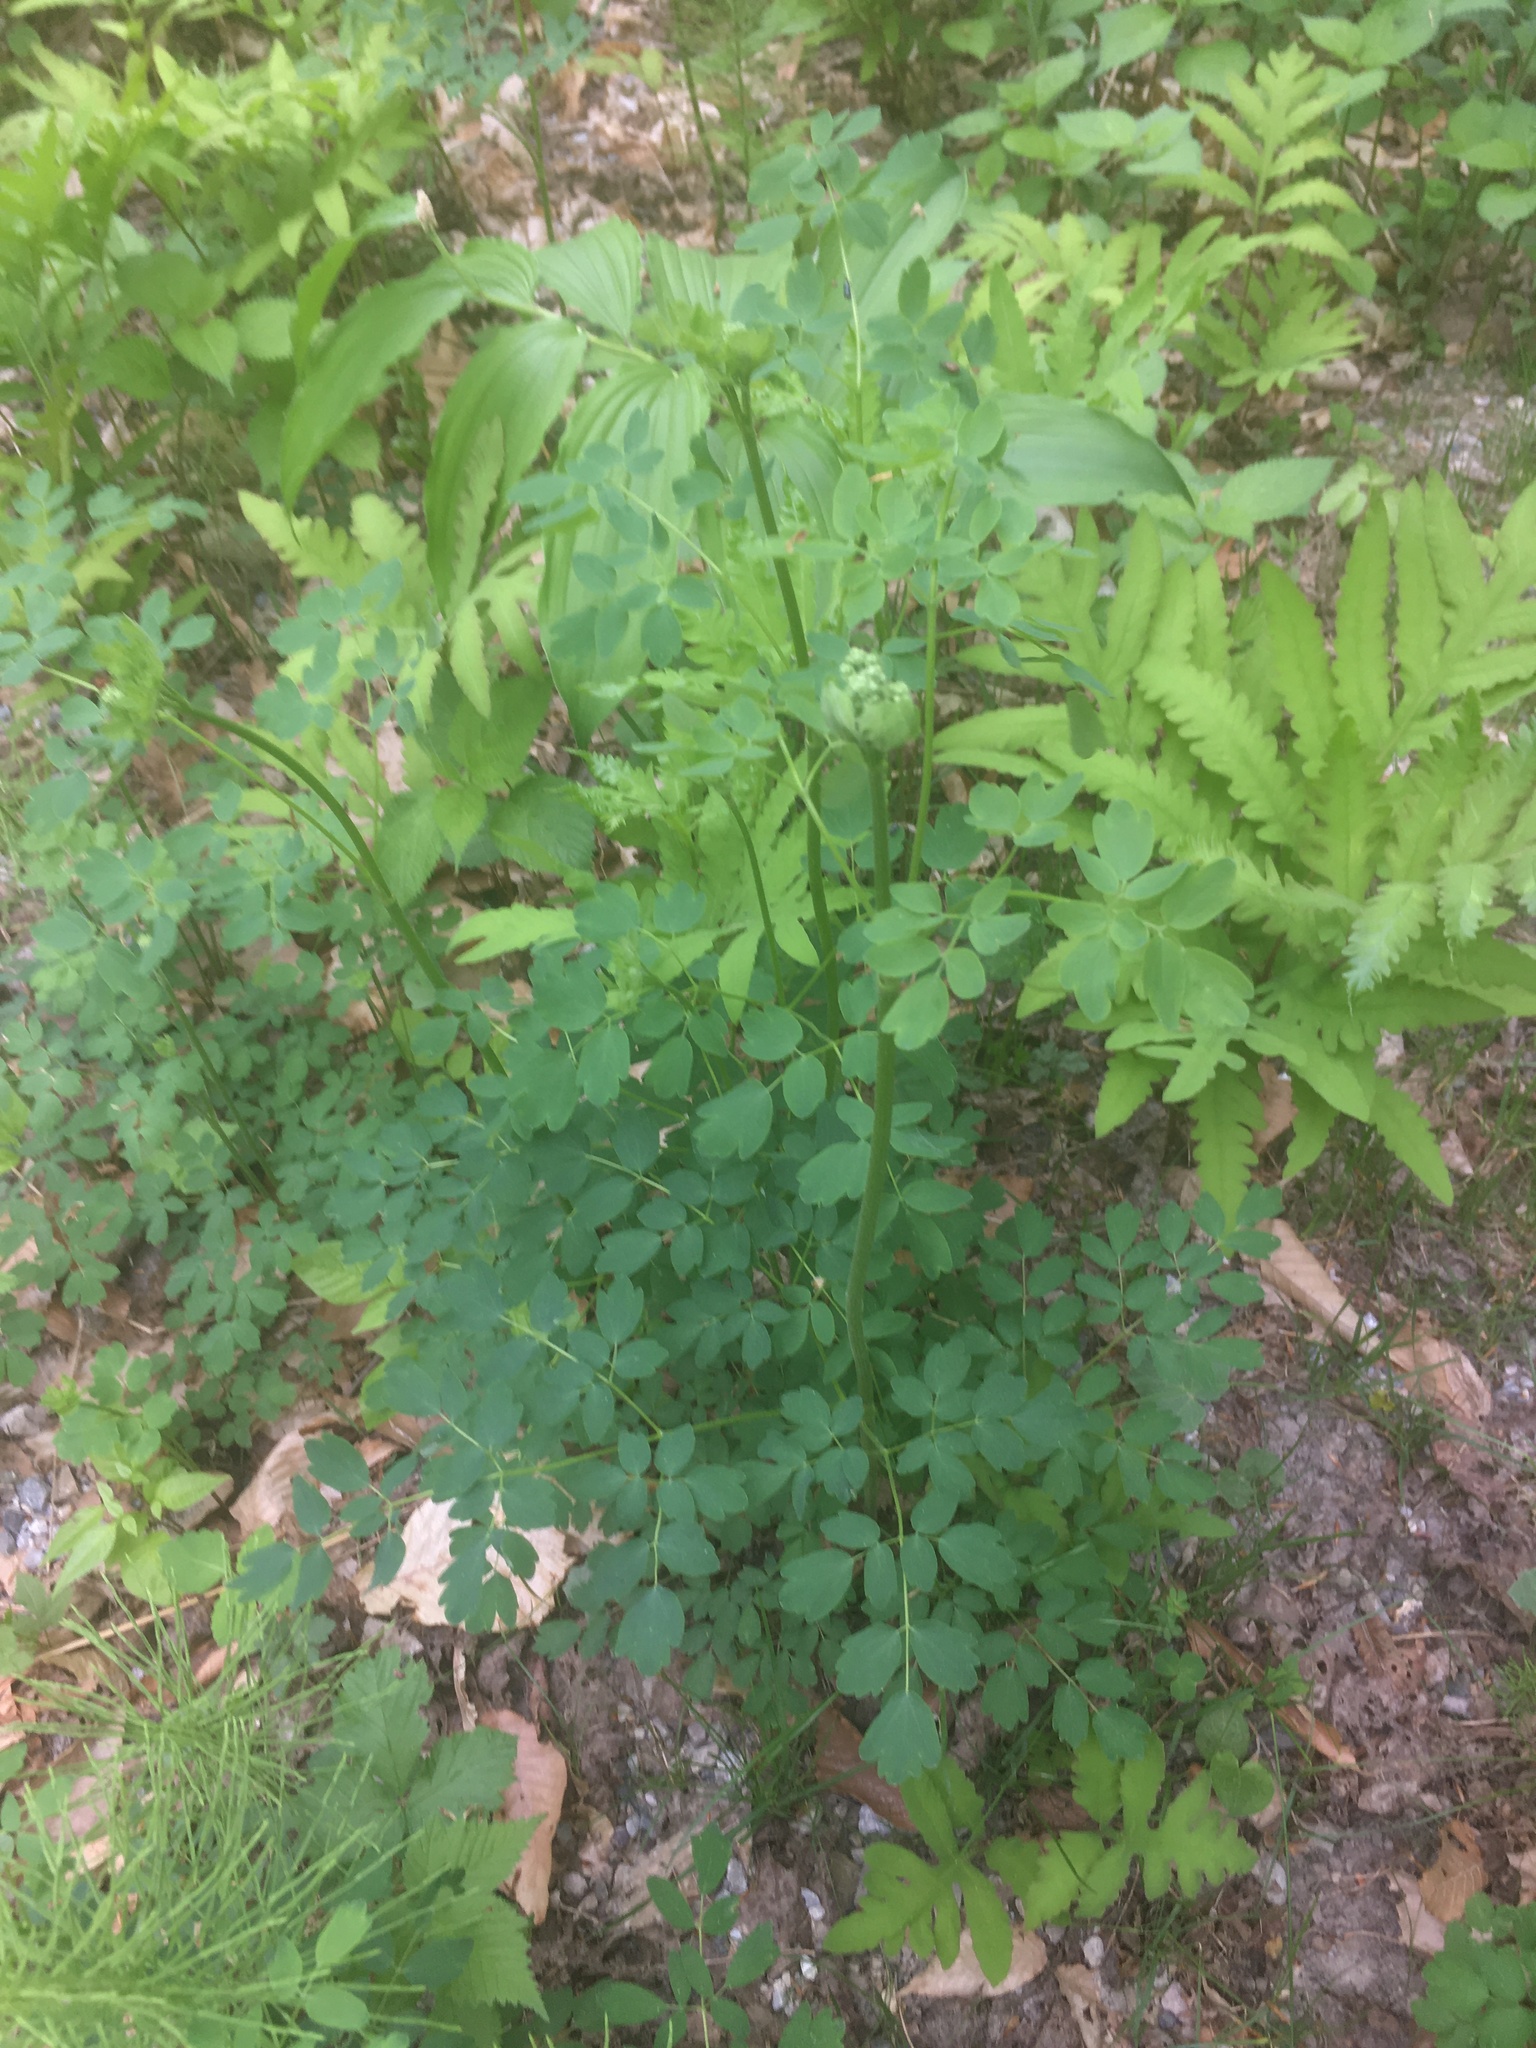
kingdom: Plantae
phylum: Tracheophyta
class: Magnoliopsida
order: Ranunculales
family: Ranunculaceae
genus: Thalictrum
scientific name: Thalictrum pubescens
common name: King-of-the-meadow
